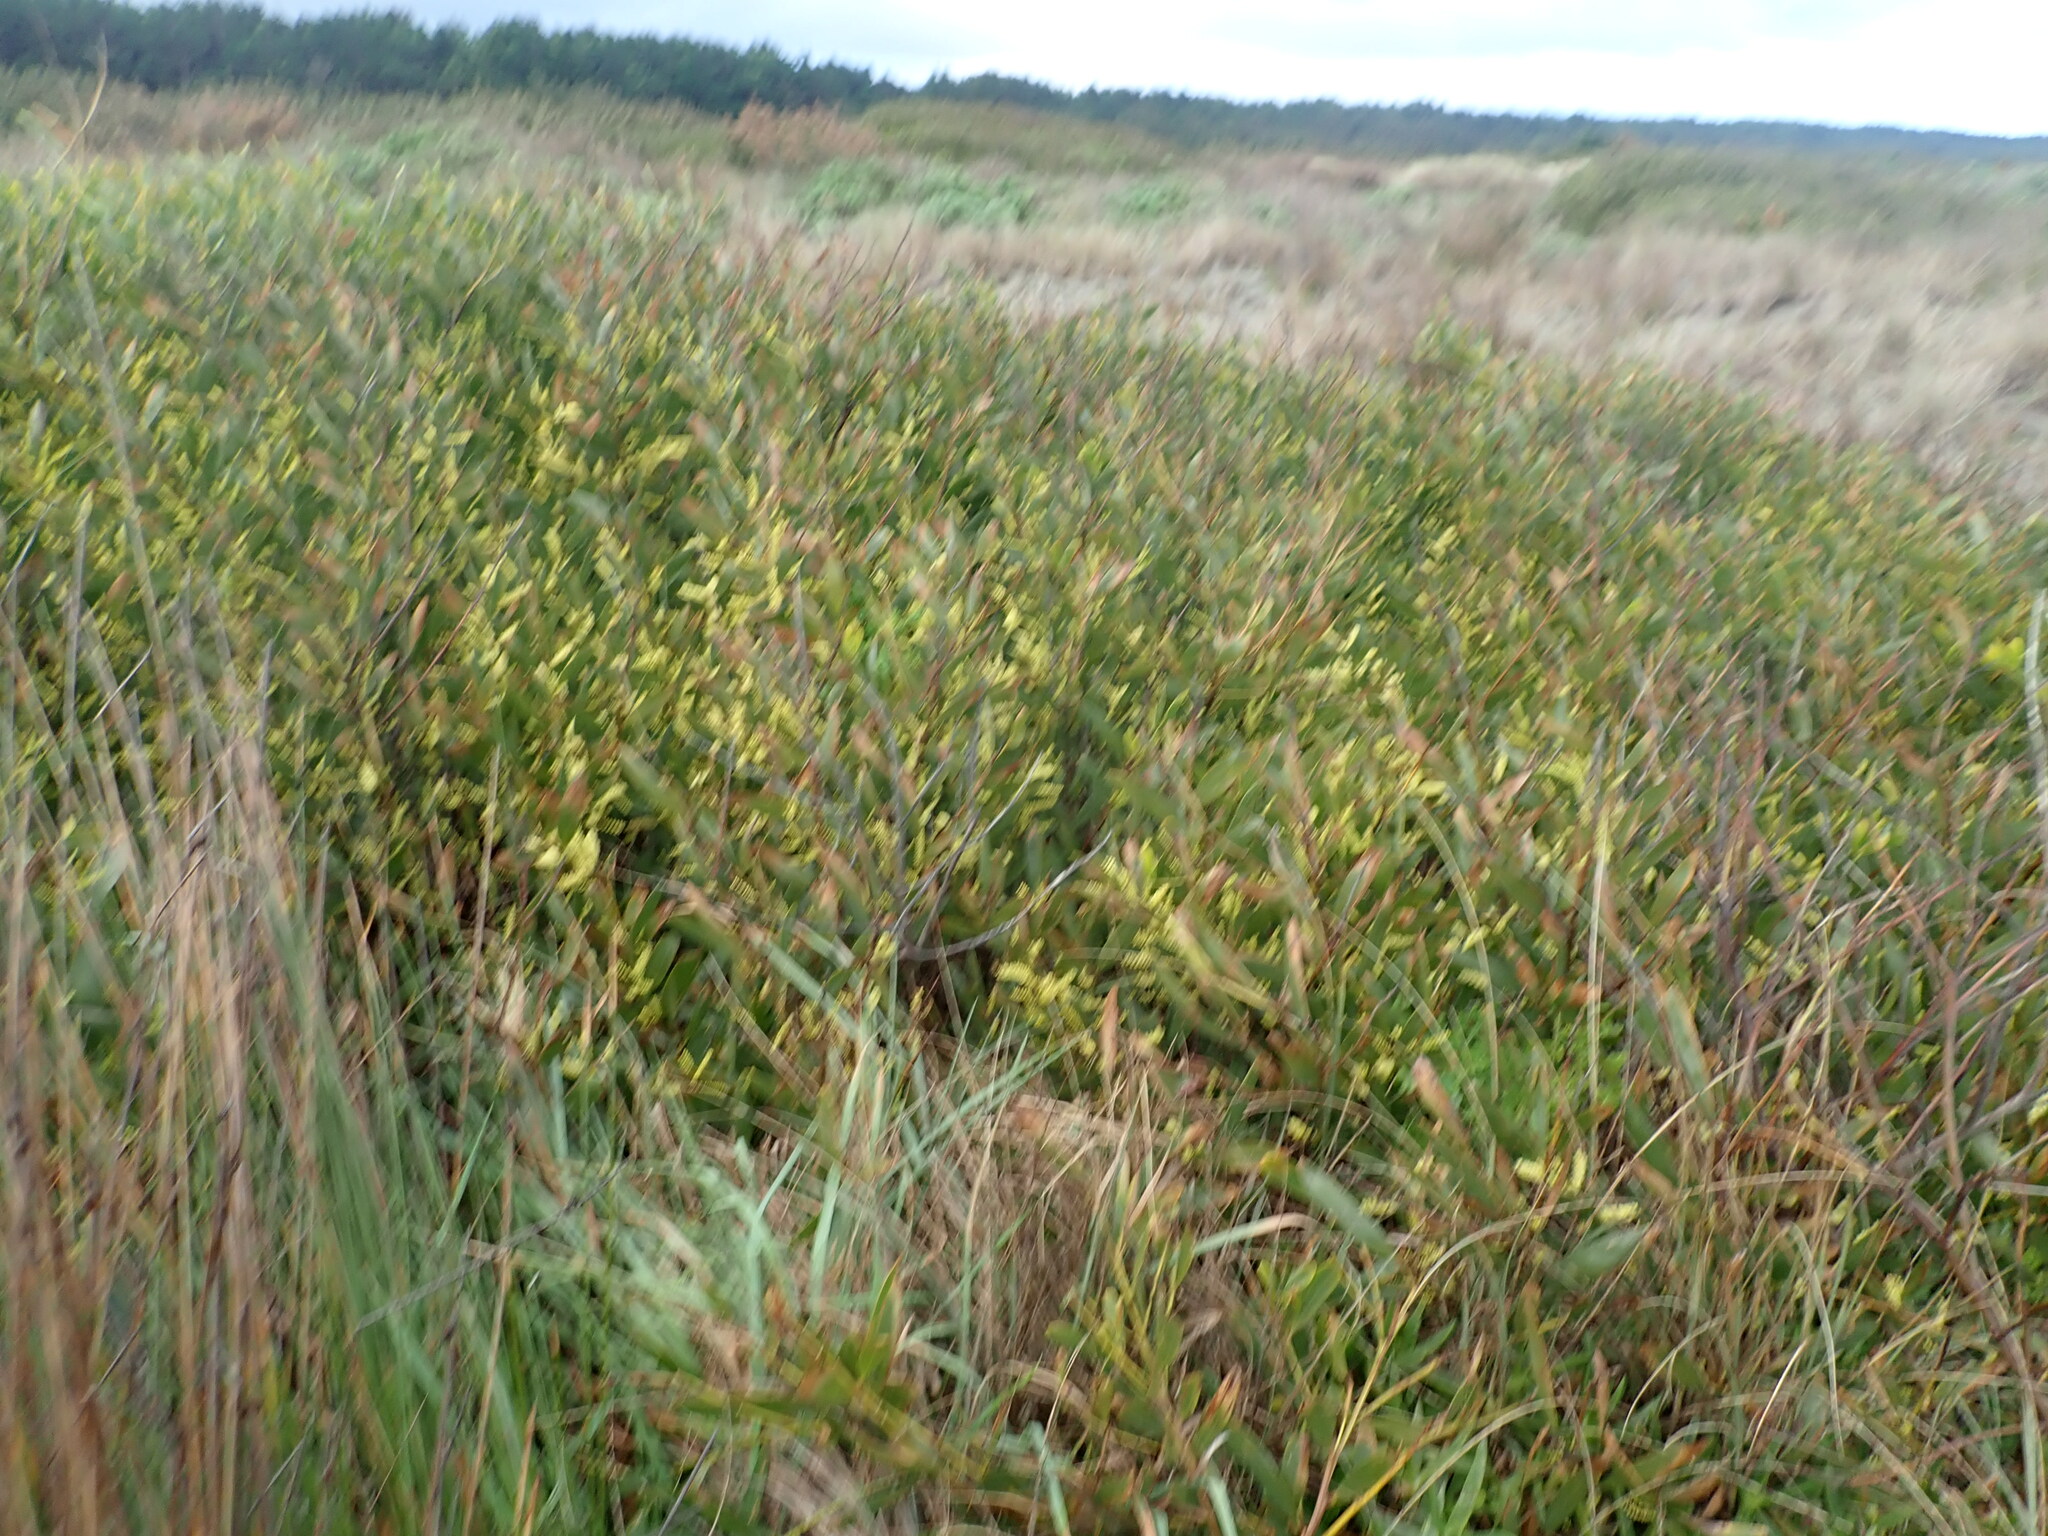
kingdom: Plantae
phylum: Tracheophyta
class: Magnoliopsida
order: Fabales
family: Fabaceae
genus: Acacia
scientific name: Acacia longifolia
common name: Sydney golden wattle
